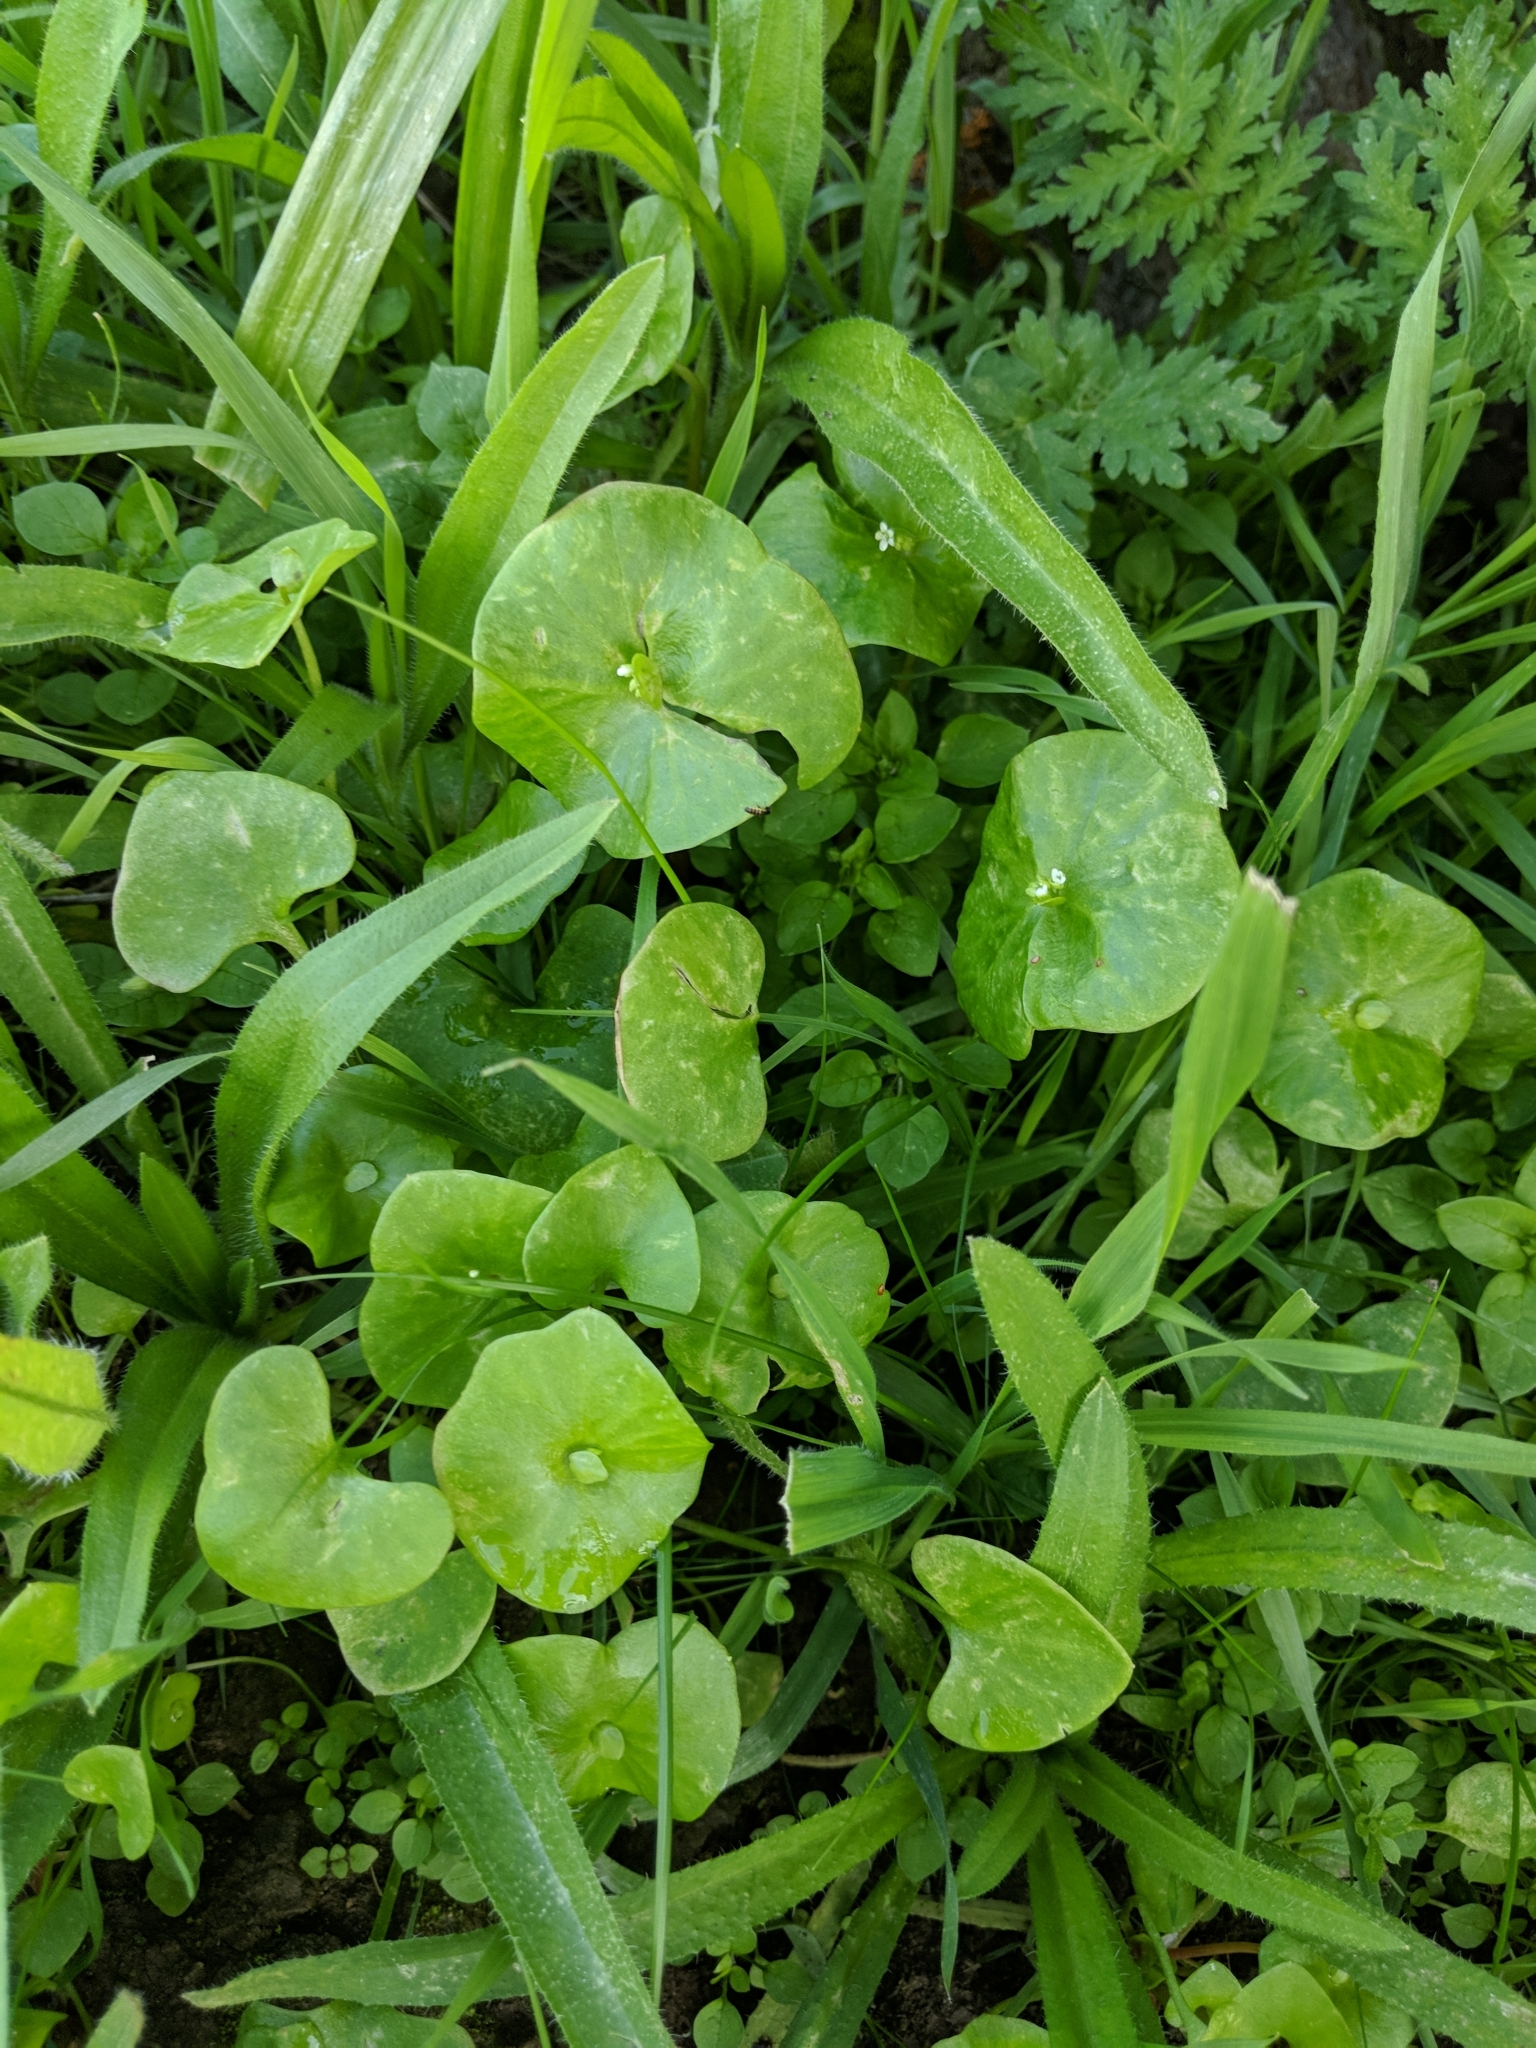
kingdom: Plantae
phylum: Tracheophyta
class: Magnoliopsida
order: Caryophyllales
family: Montiaceae
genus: Claytonia
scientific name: Claytonia perfoliata
